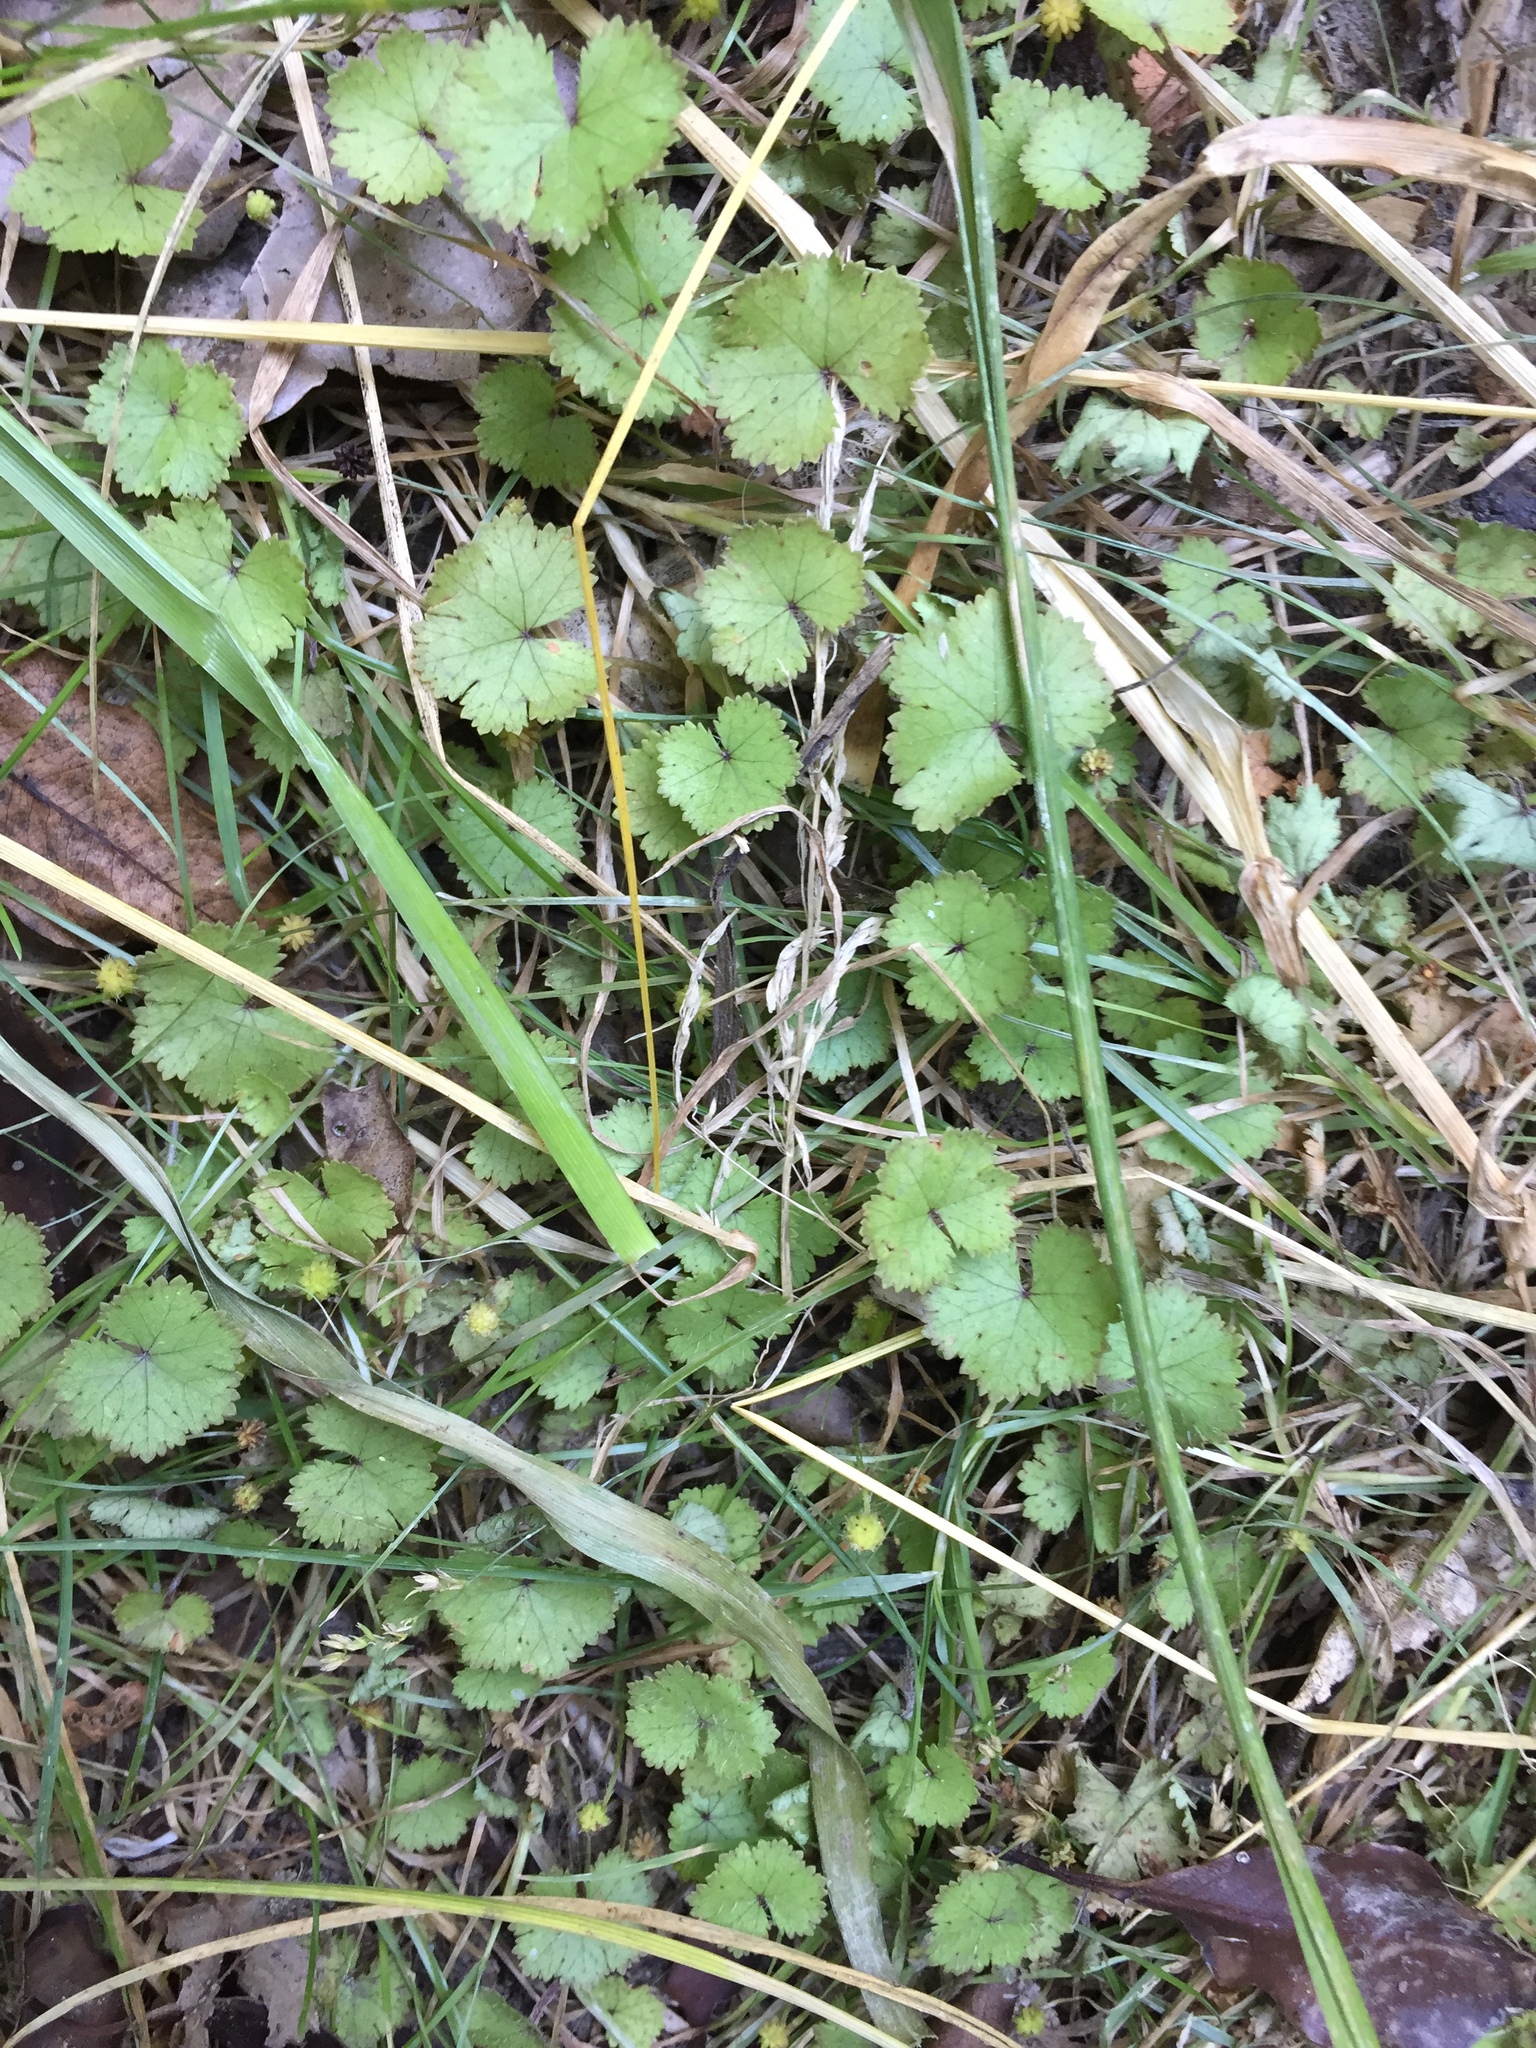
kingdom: Plantae
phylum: Tracheophyta
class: Magnoliopsida
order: Apiales
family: Araliaceae
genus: Hydrocotyle
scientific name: Hydrocotyle moschata
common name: Hairy pennywort
